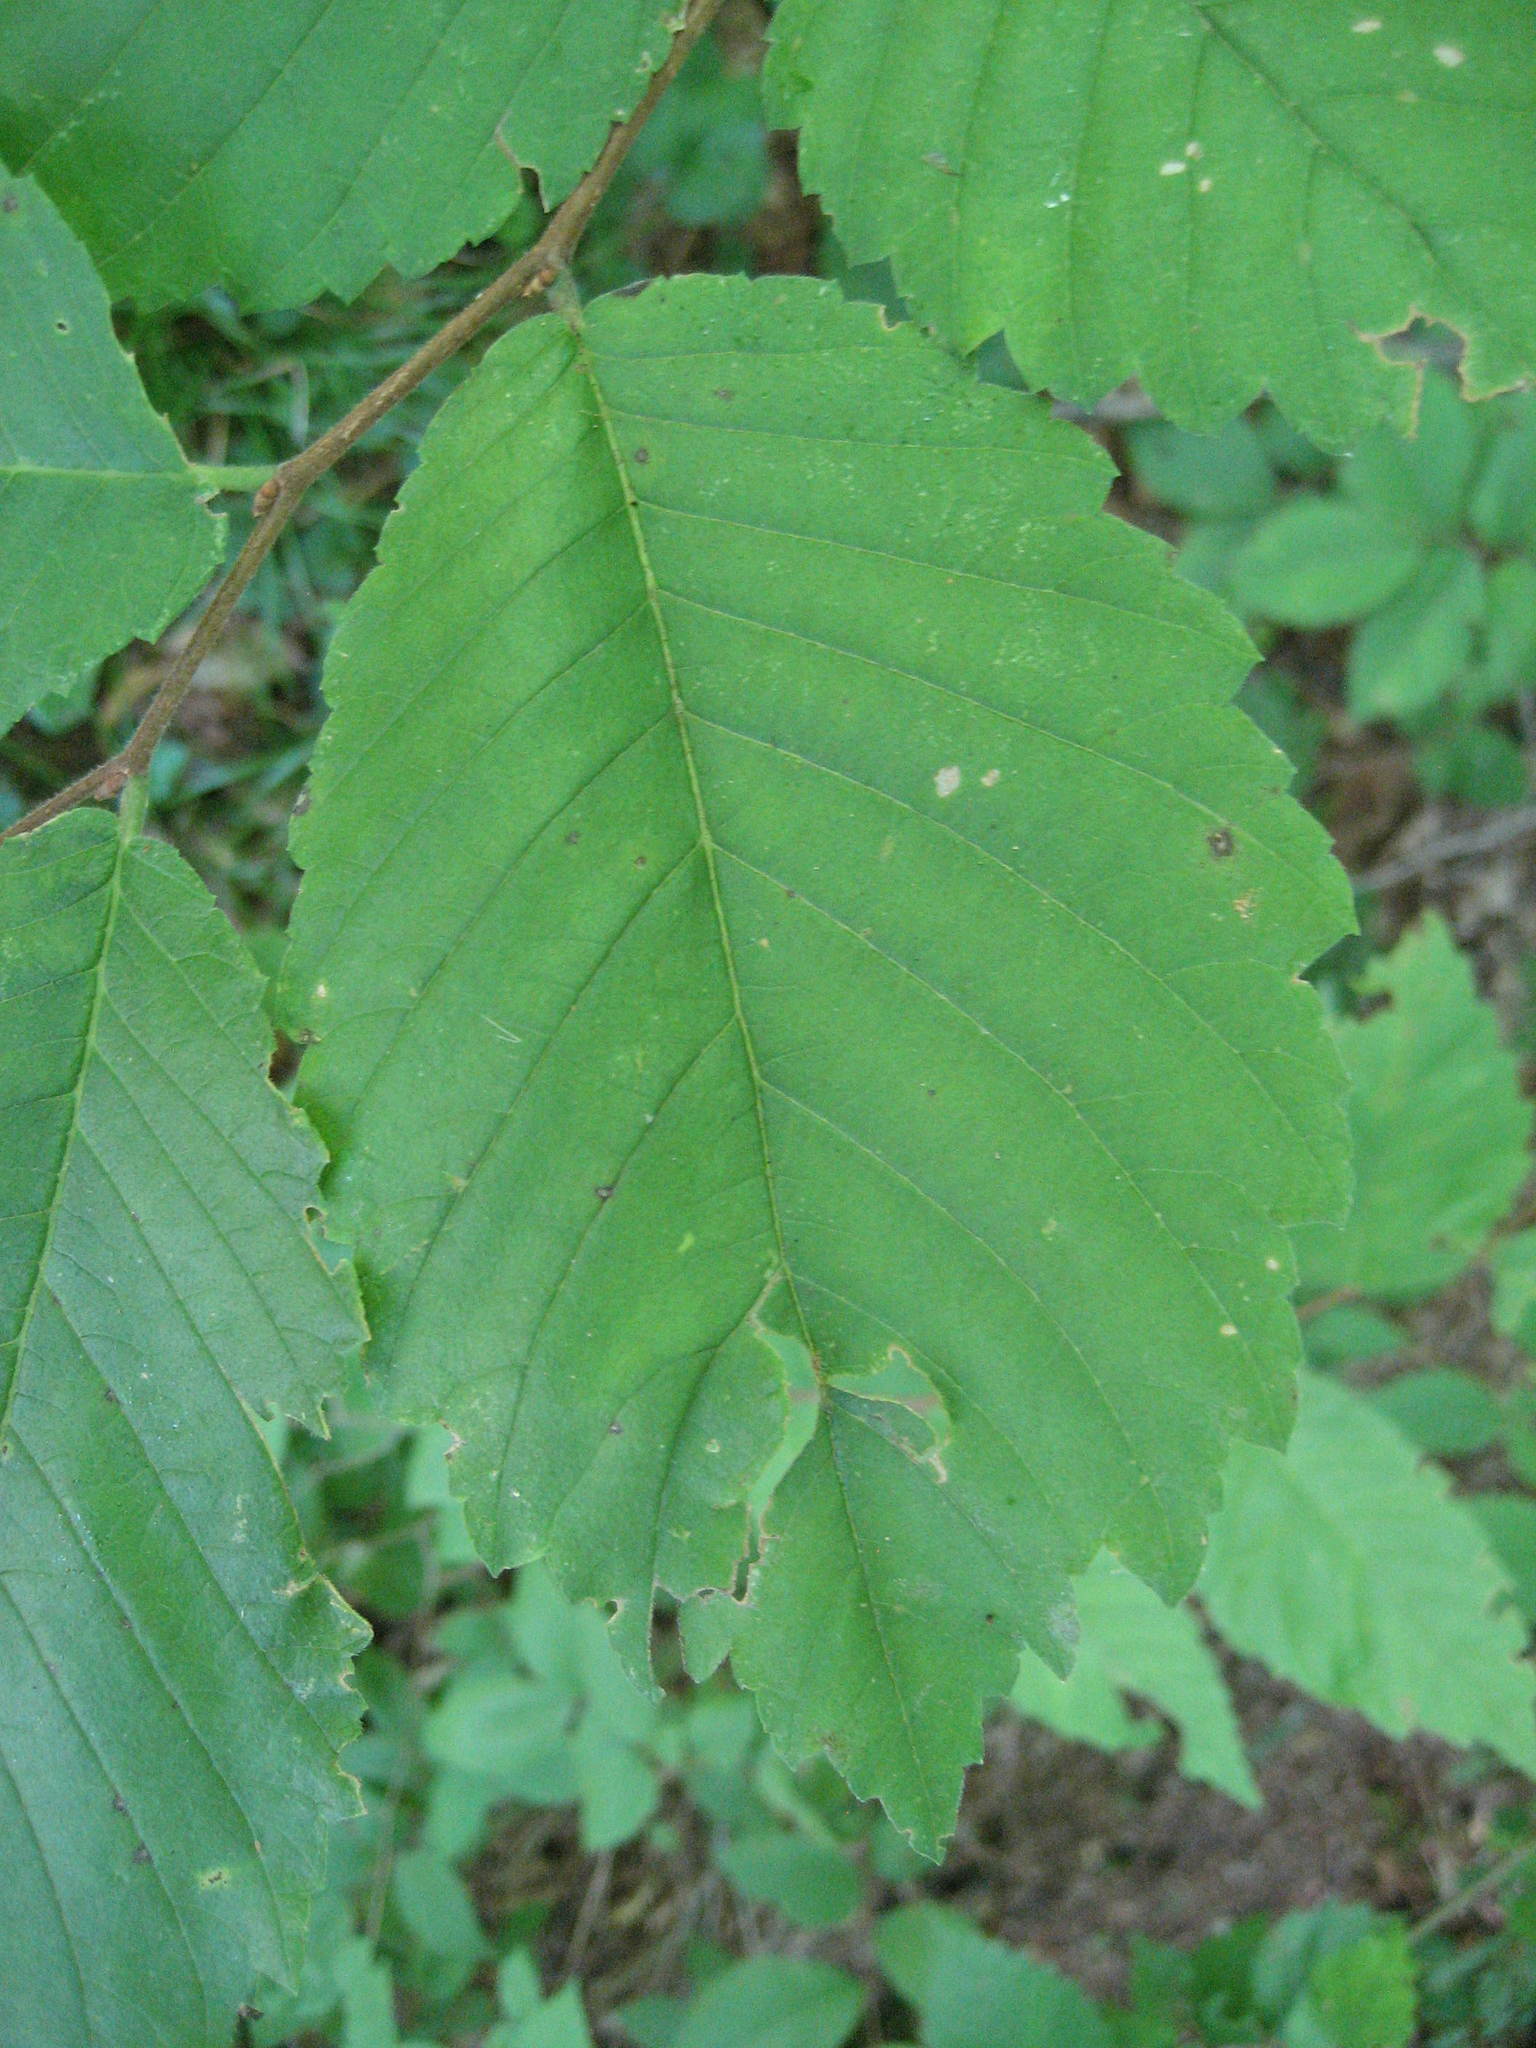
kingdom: Plantae
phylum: Tracheophyta
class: Magnoliopsida
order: Rosales
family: Ulmaceae
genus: Ulmus
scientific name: Ulmus americana
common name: American elm
